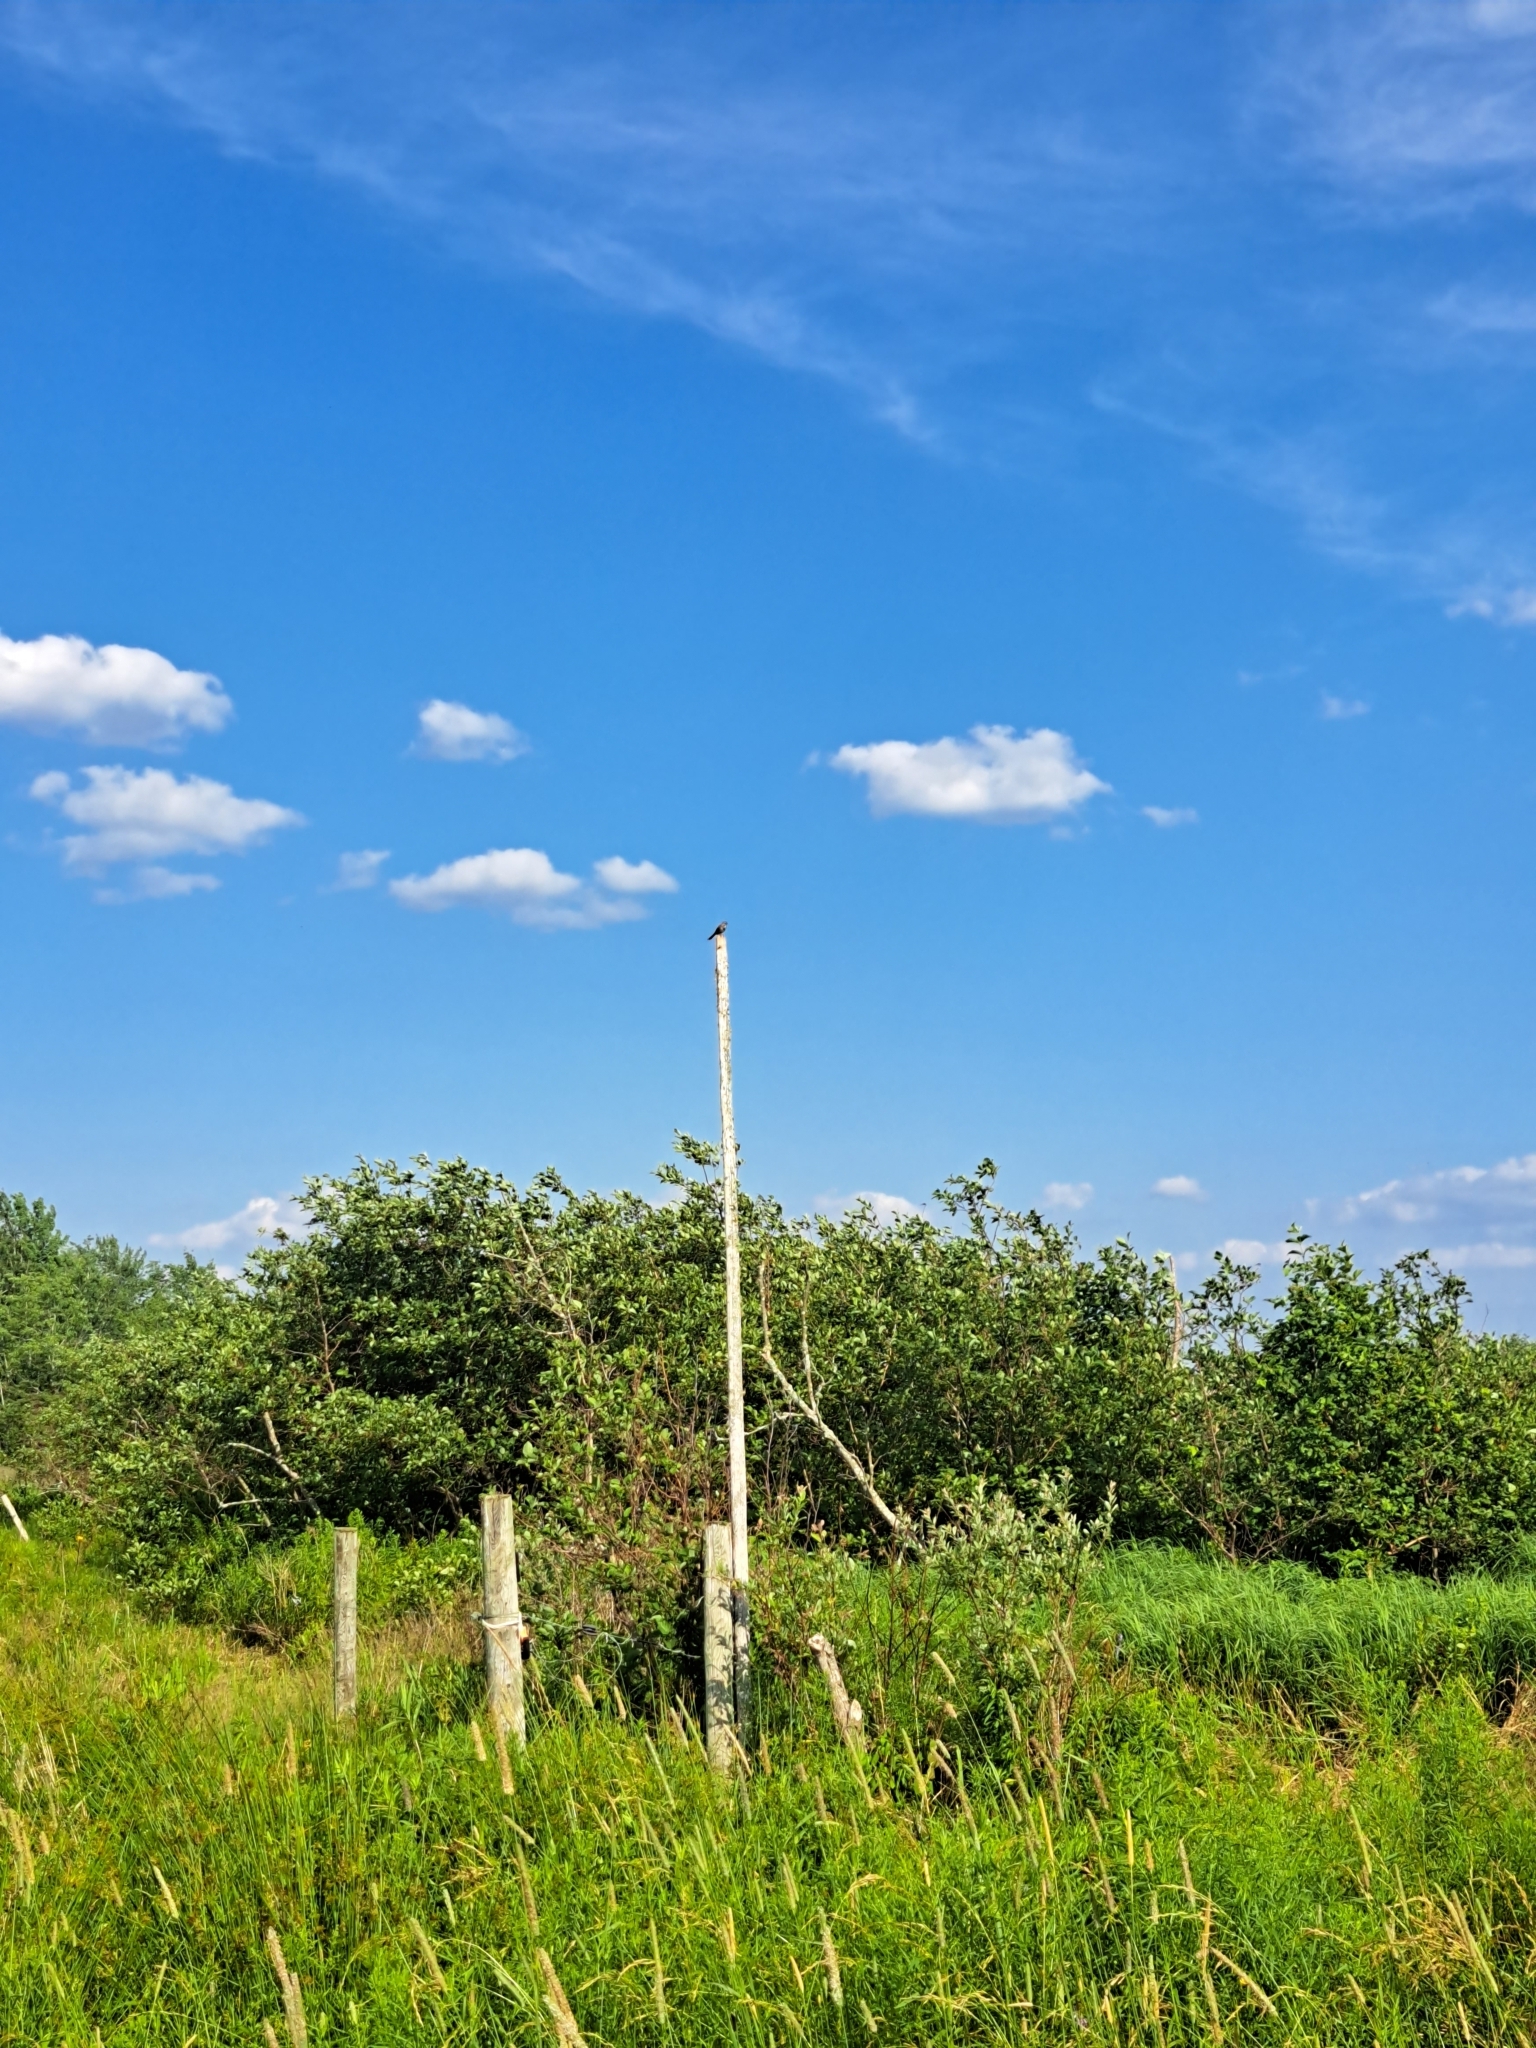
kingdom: Animalia
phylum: Chordata
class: Aves
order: Passeriformes
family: Passerellidae
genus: Melospiza
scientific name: Melospiza melodia
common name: Song sparrow
